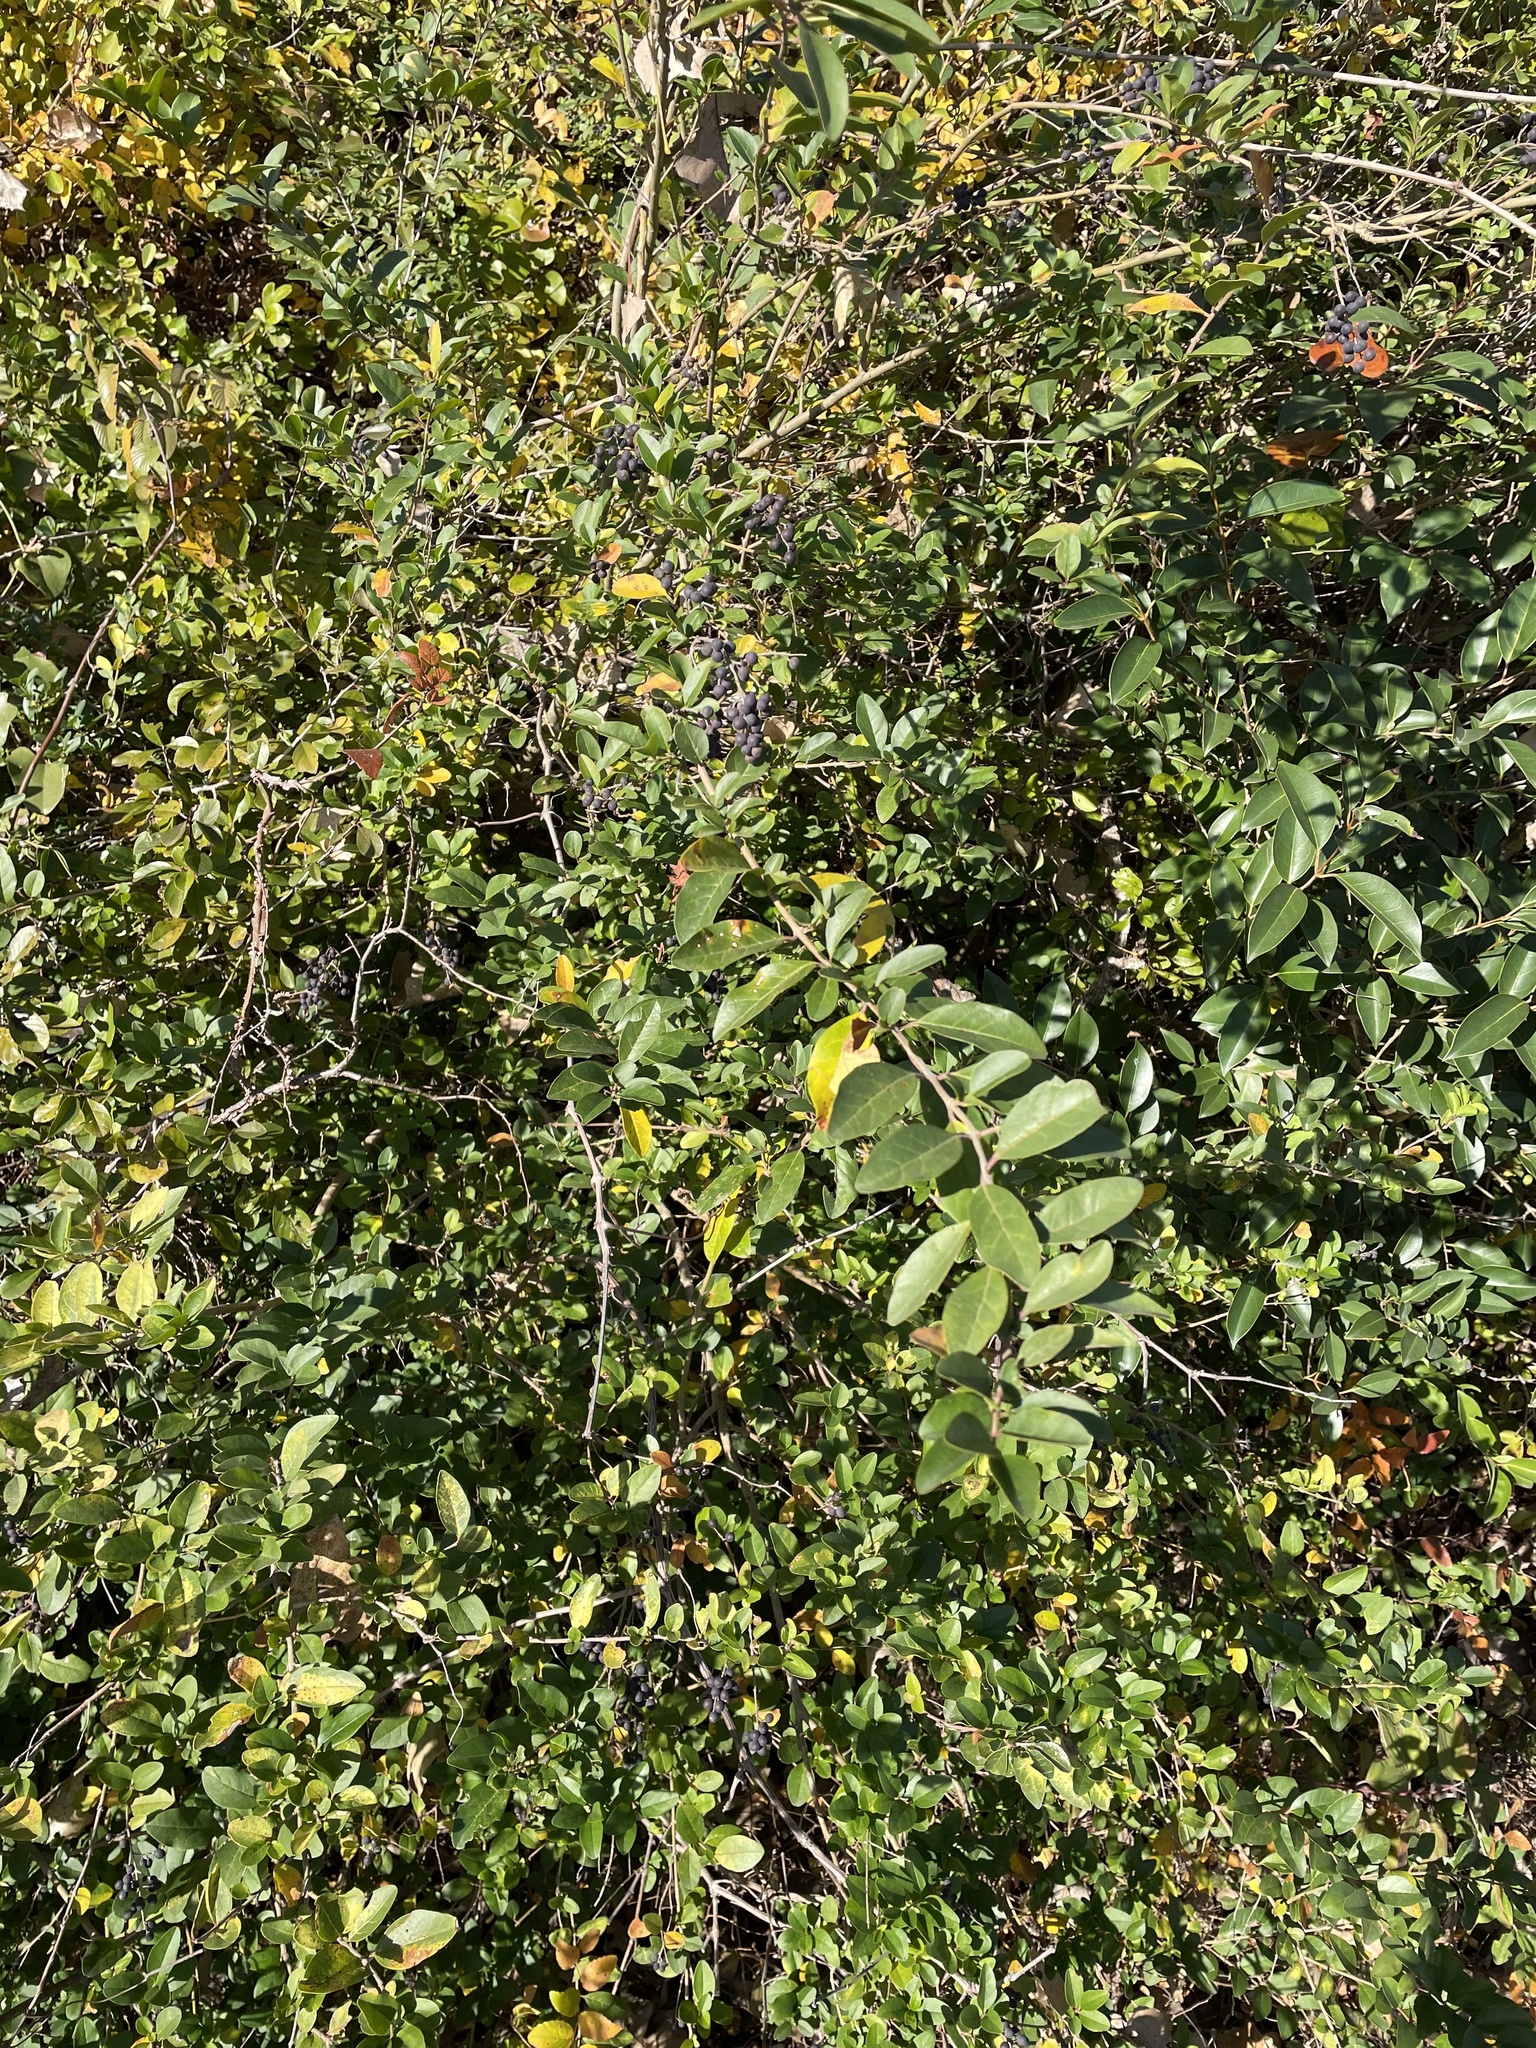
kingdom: Plantae
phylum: Tracheophyta
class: Magnoliopsida
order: Lamiales
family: Oleaceae
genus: Ligustrum
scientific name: Ligustrum sinense
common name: Chinese privet
